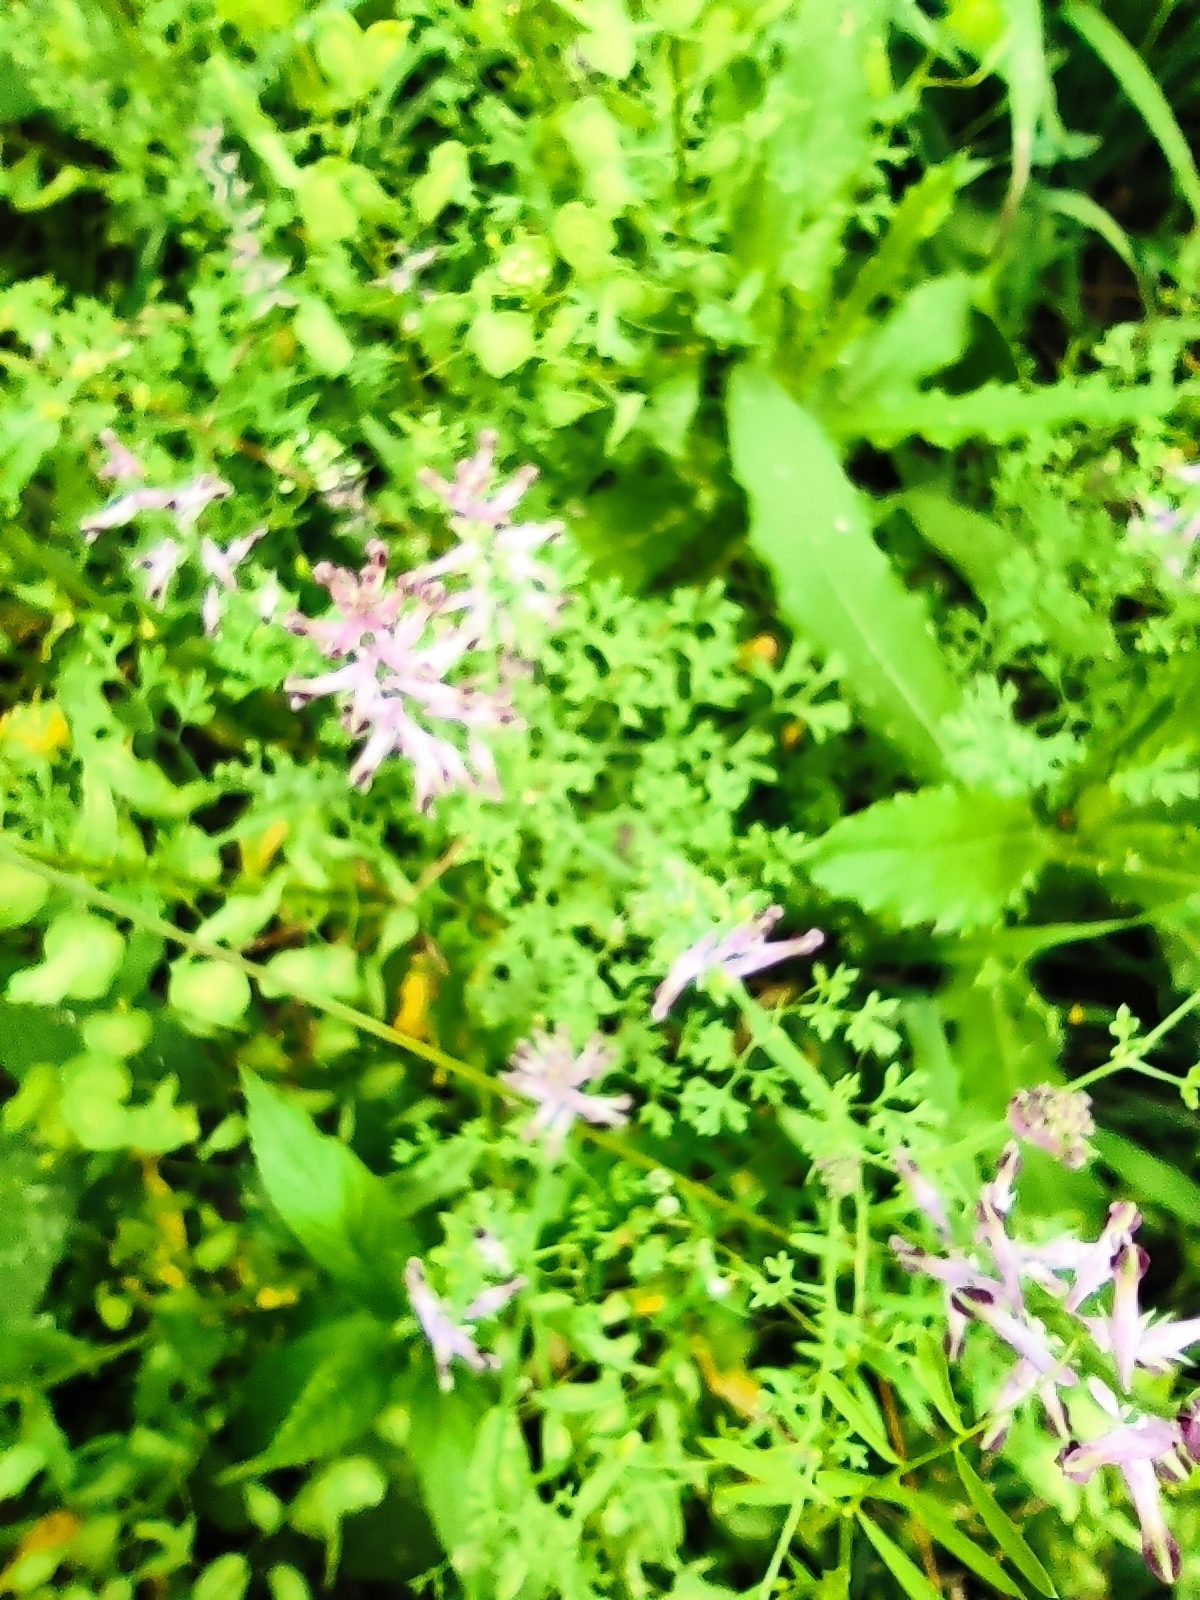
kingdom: Plantae
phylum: Tracheophyta
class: Magnoliopsida
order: Ranunculales
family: Papaveraceae
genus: Fumaria
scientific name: Fumaria officinalis
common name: Common fumitory
